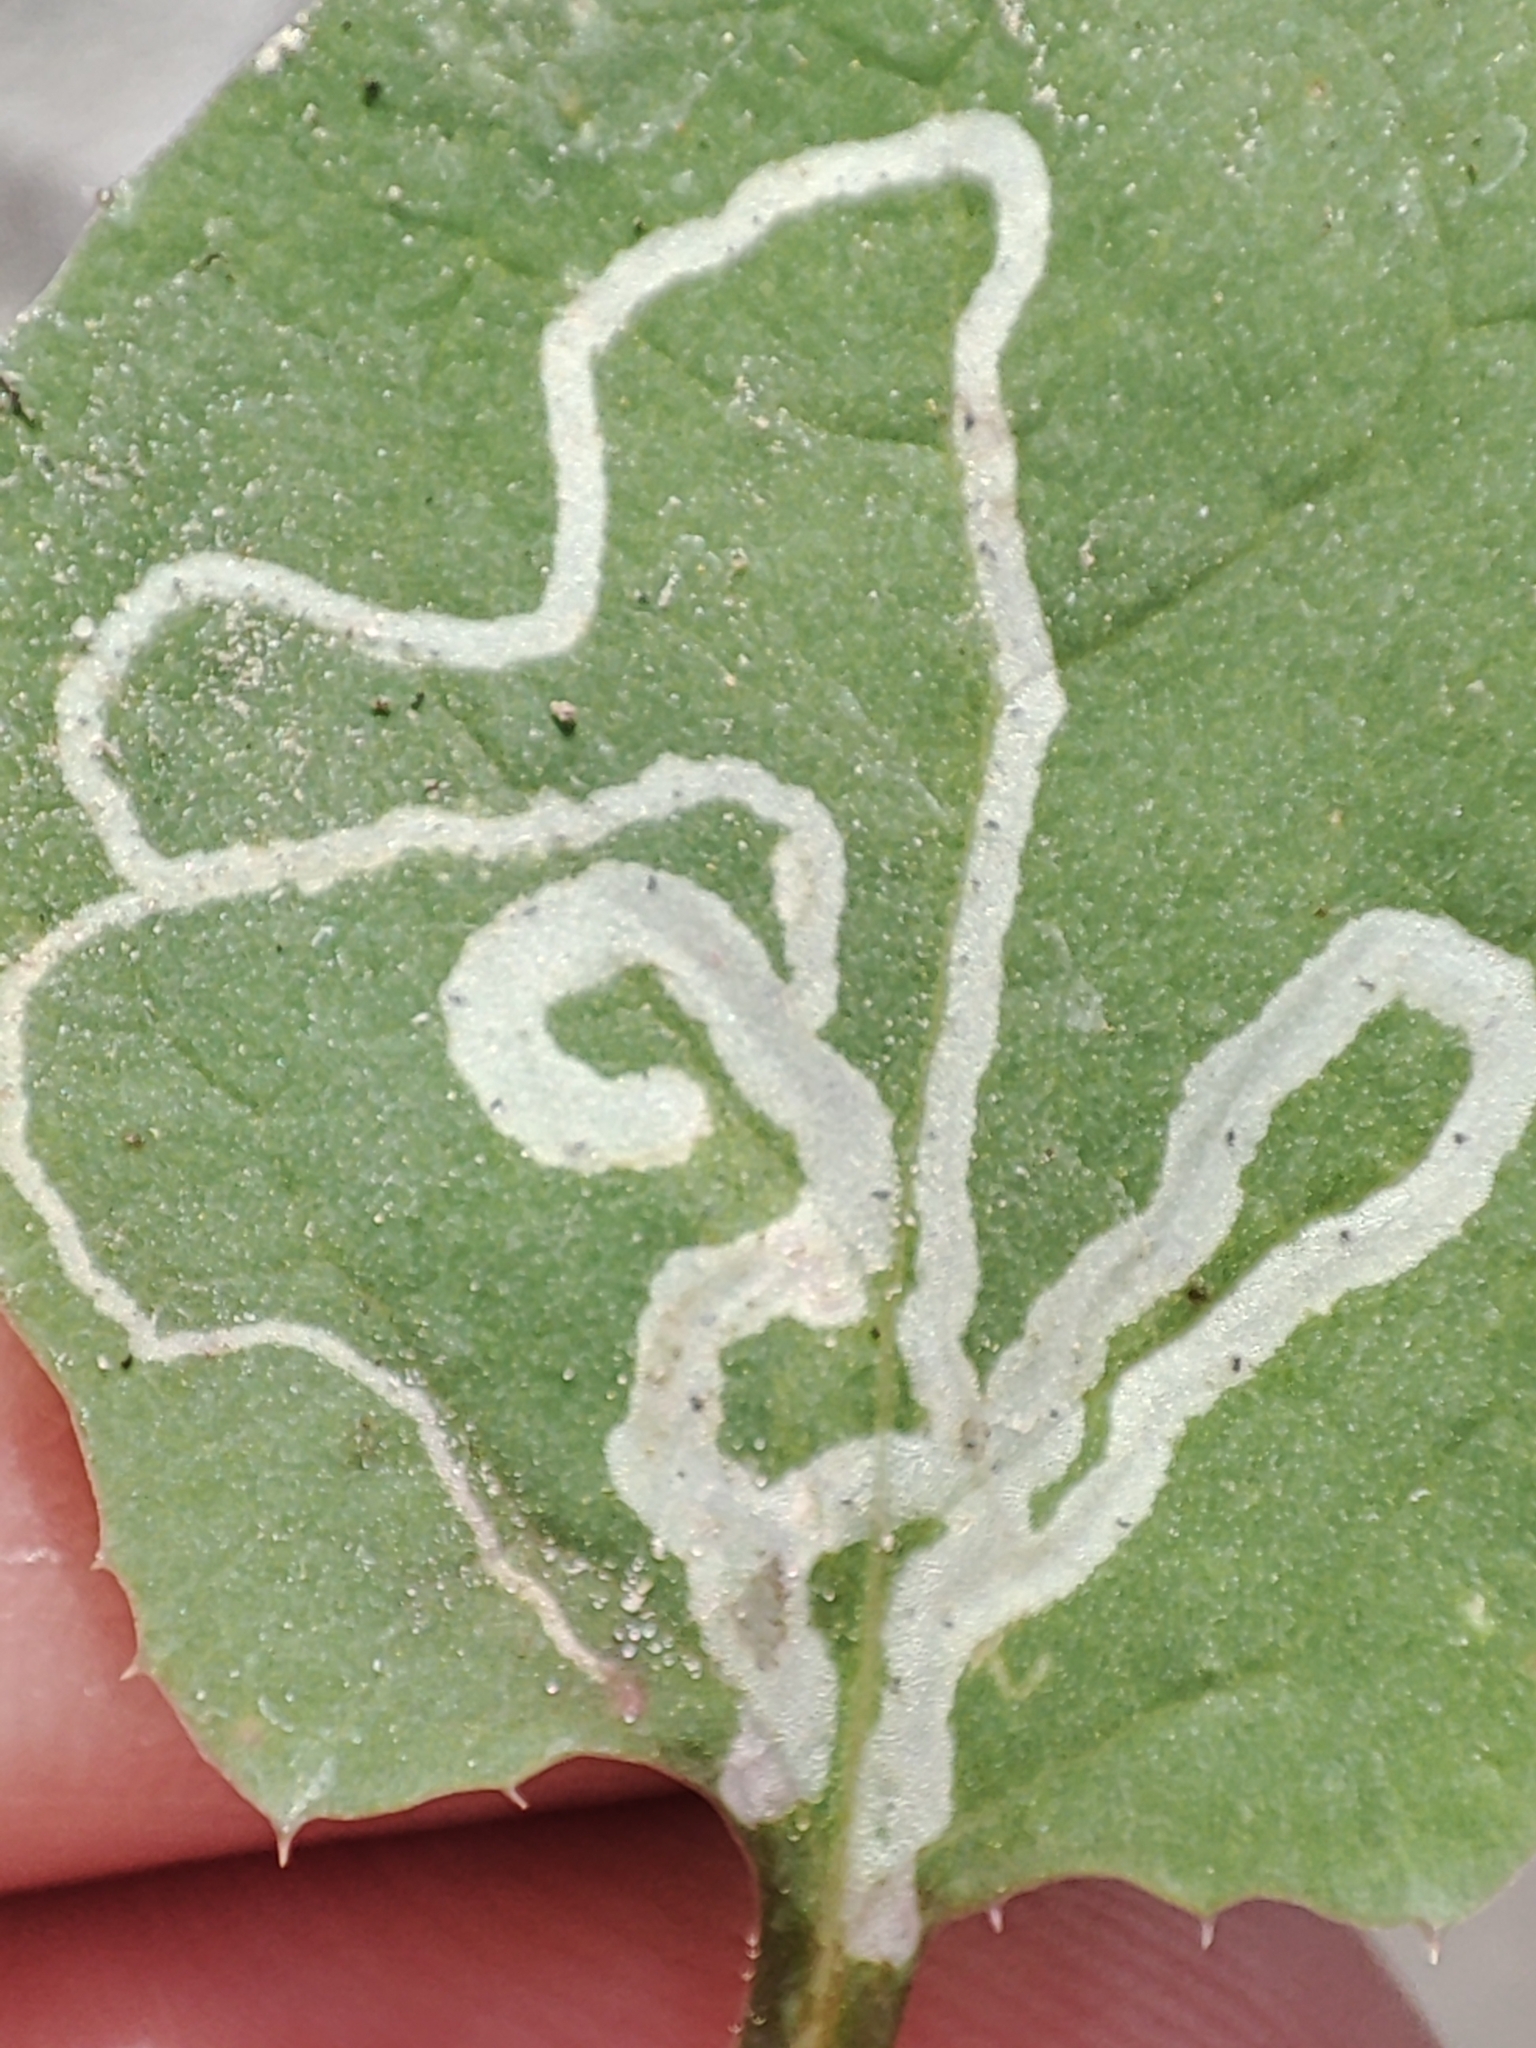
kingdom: Plantae
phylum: Tracheophyta
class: Magnoliopsida
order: Asterales
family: Asteraceae
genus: Sonchus
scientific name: Sonchus oleraceus
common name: Common sowthistle
